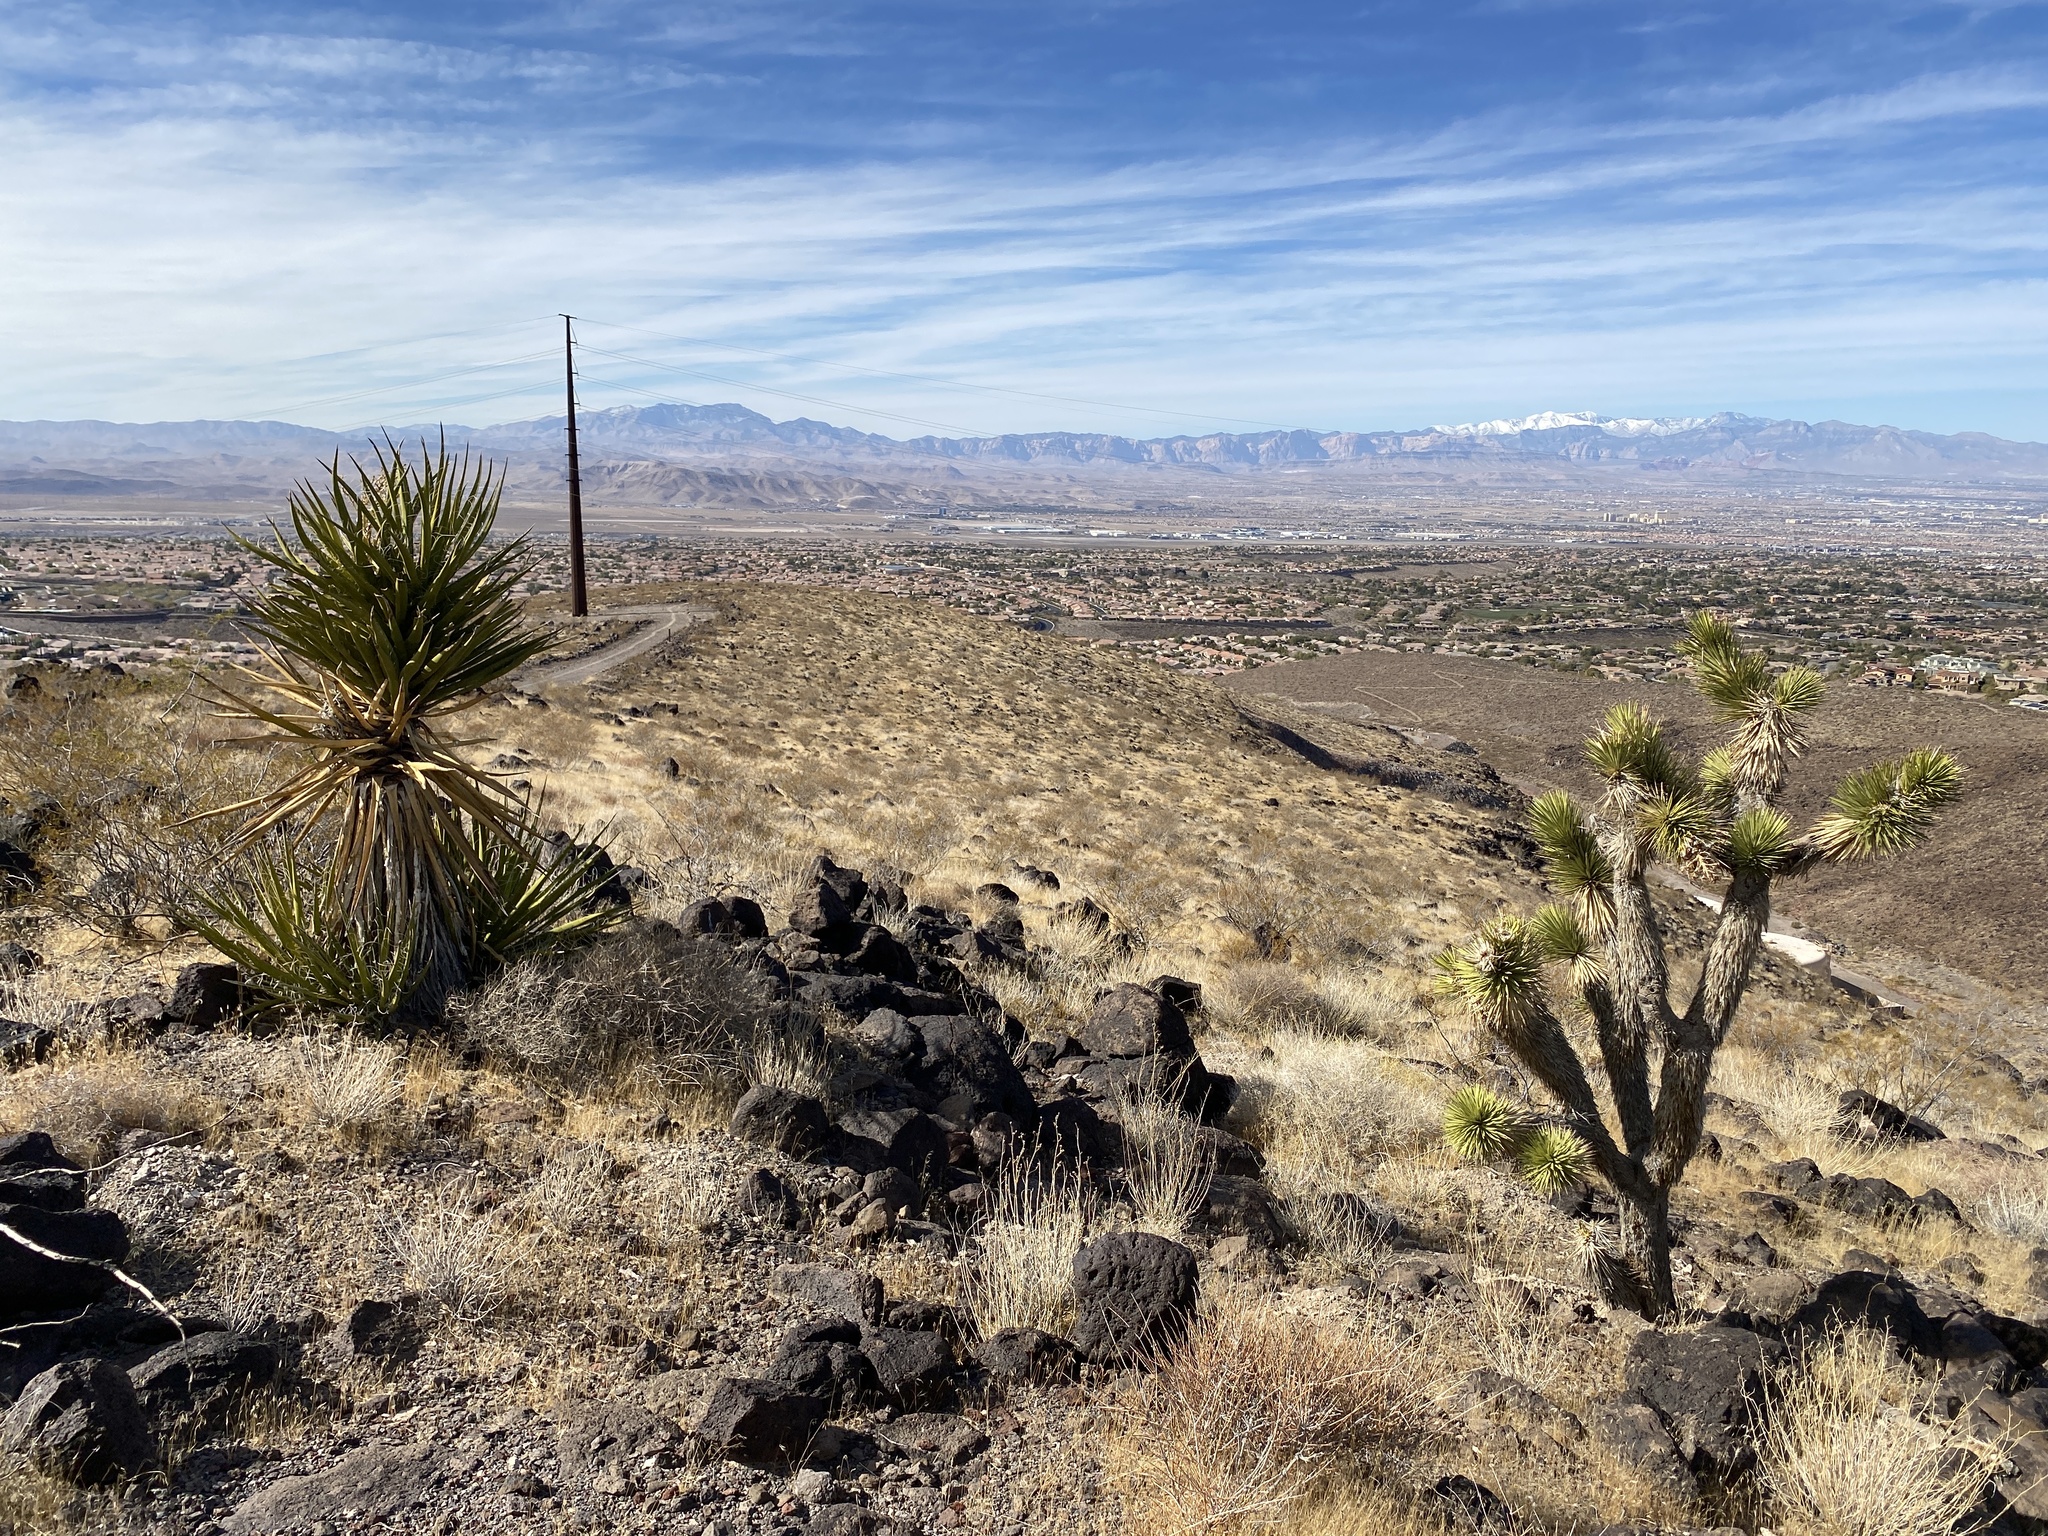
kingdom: Plantae
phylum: Tracheophyta
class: Liliopsida
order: Asparagales
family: Asparagaceae
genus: Yucca
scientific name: Yucca brevifolia
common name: Joshua tree
